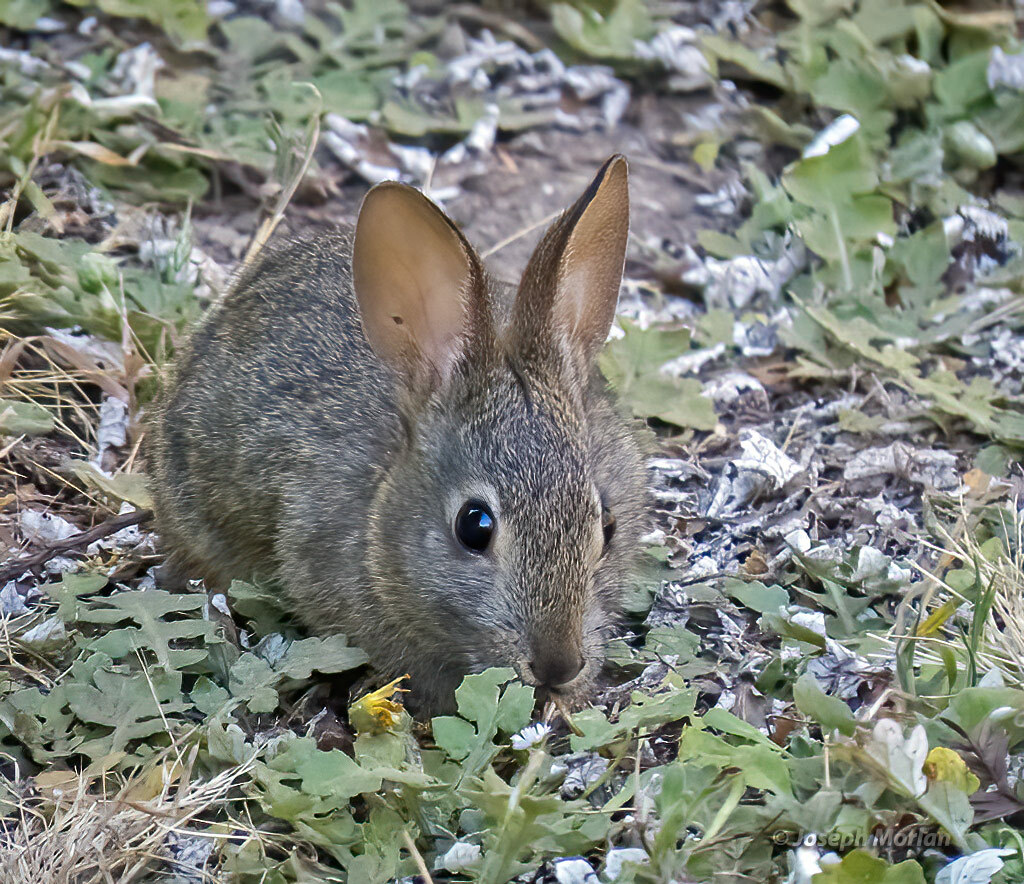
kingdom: Animalia
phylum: Chordata
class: Mammalia
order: Lagomorpha
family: Leporidae
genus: Sylvilagus
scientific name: Sylvilagus bachmani
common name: Brush rabbit
